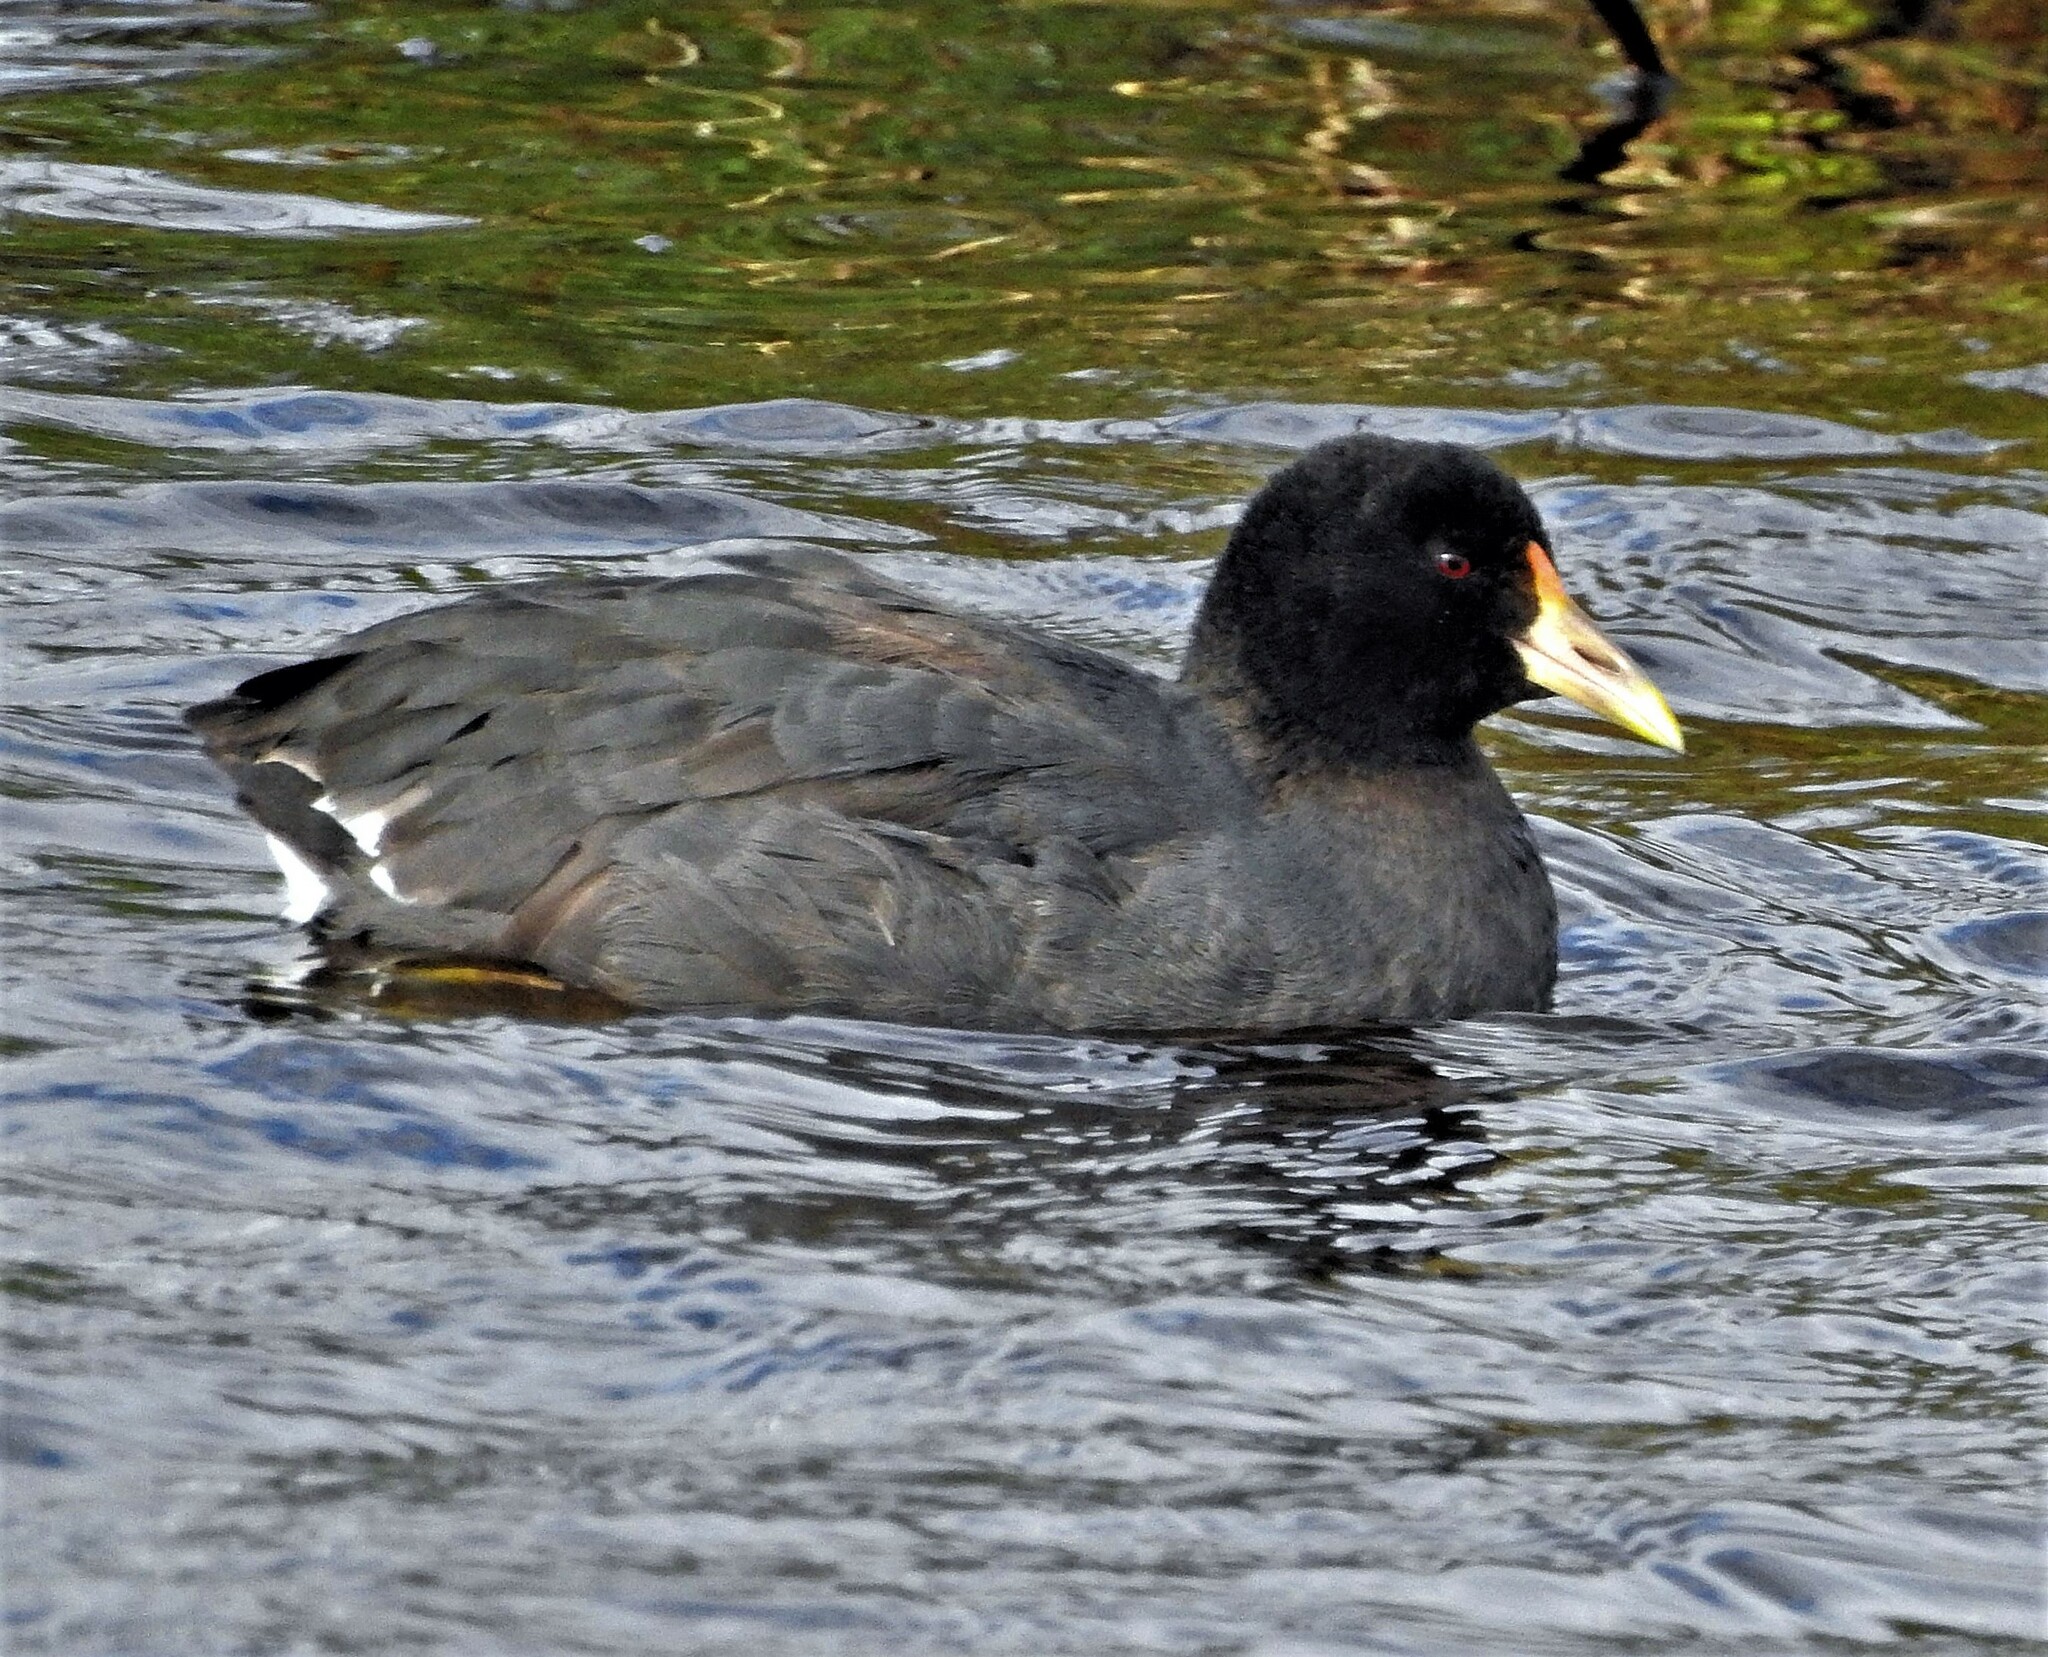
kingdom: Animalia
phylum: Chordata
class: Aves
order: Gruiformes
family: Rallidae
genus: Fulica
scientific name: Fulica leucoptera
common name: White-winged coot
